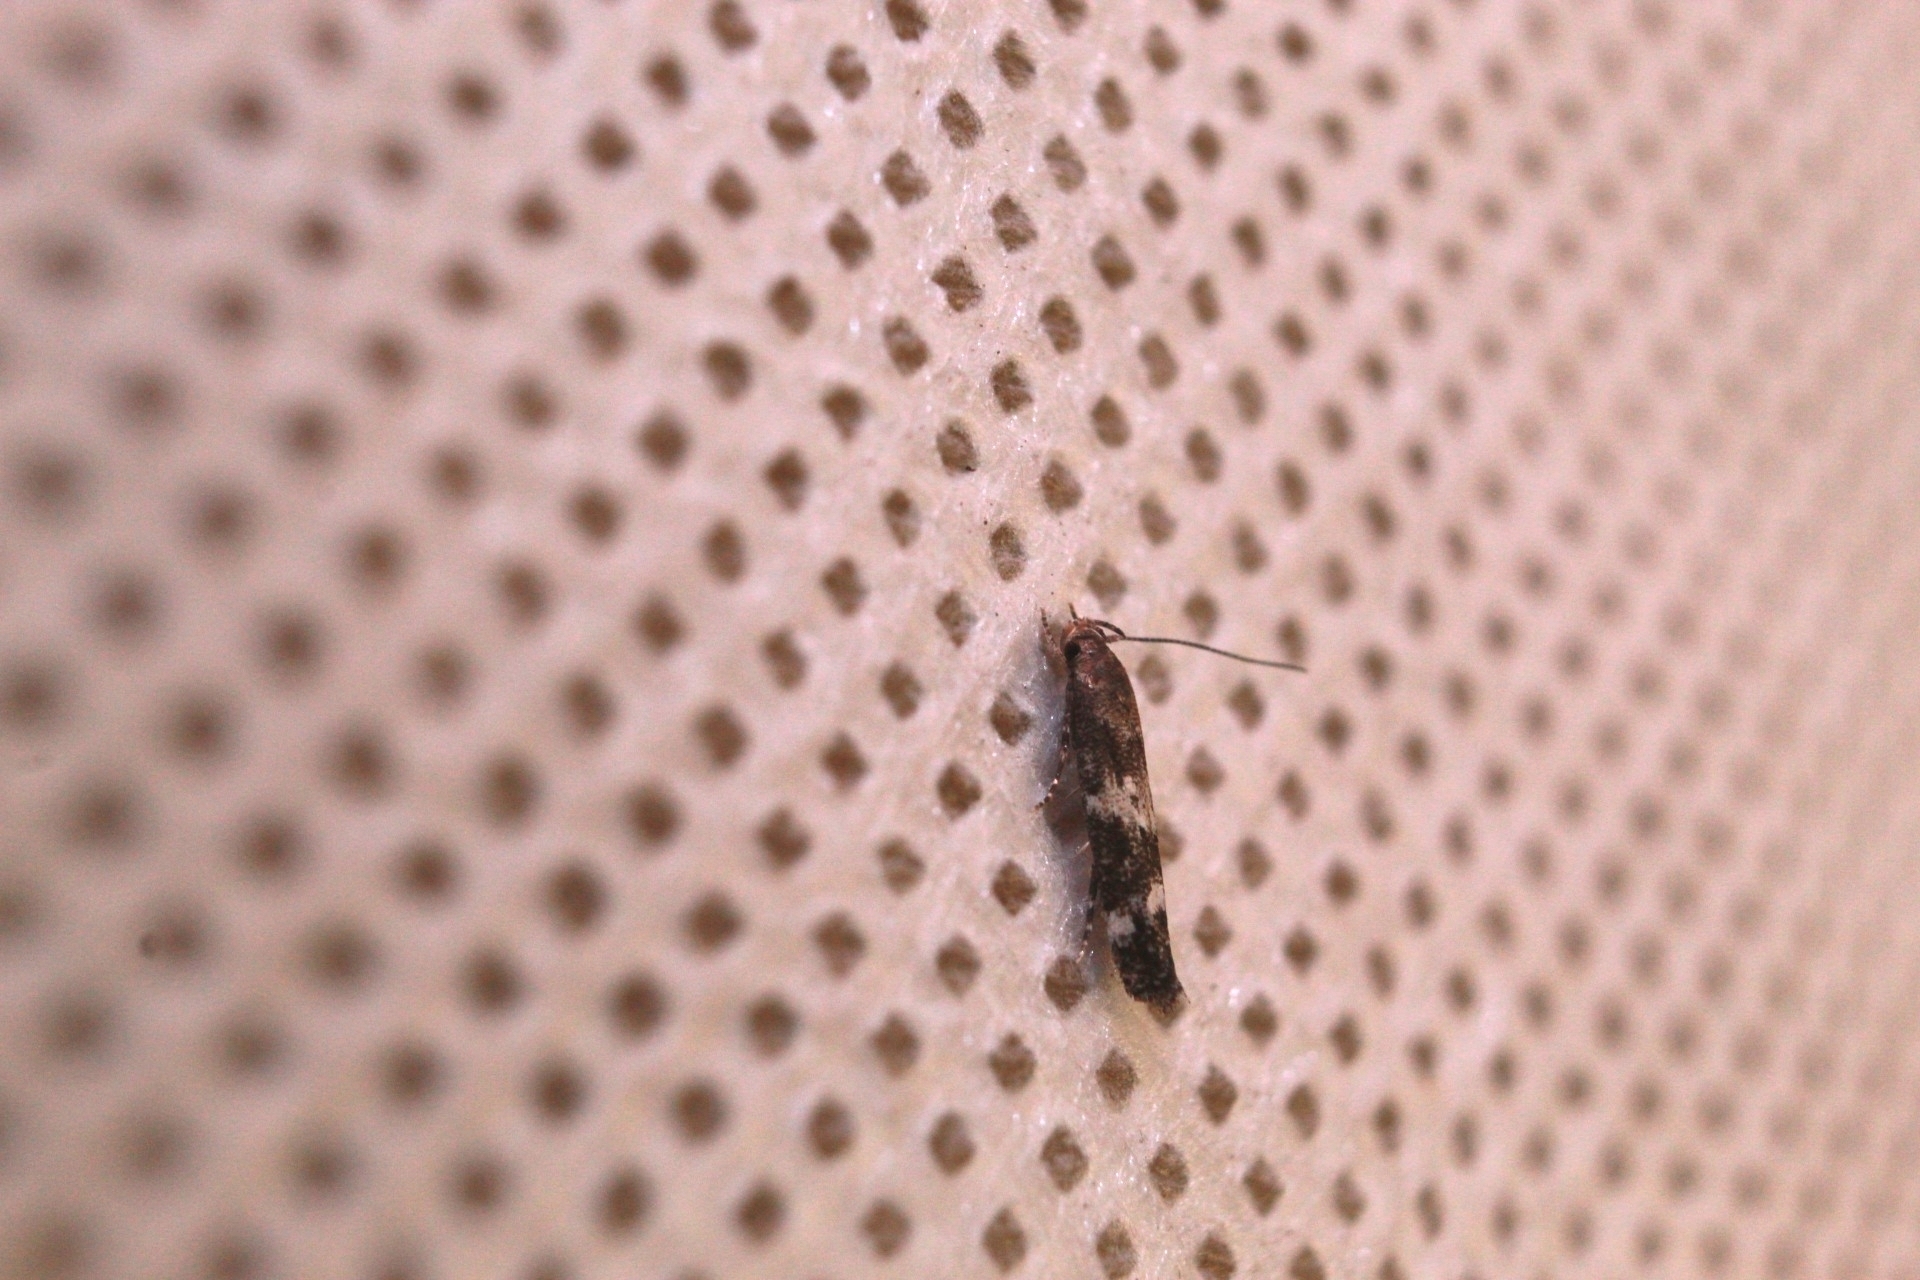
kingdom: Animalia
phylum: Arthropoda
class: Insecta
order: Lepidoptera
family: Momphidae
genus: Mompha
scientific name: Mompha subbistrigella
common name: Garden cosmet
